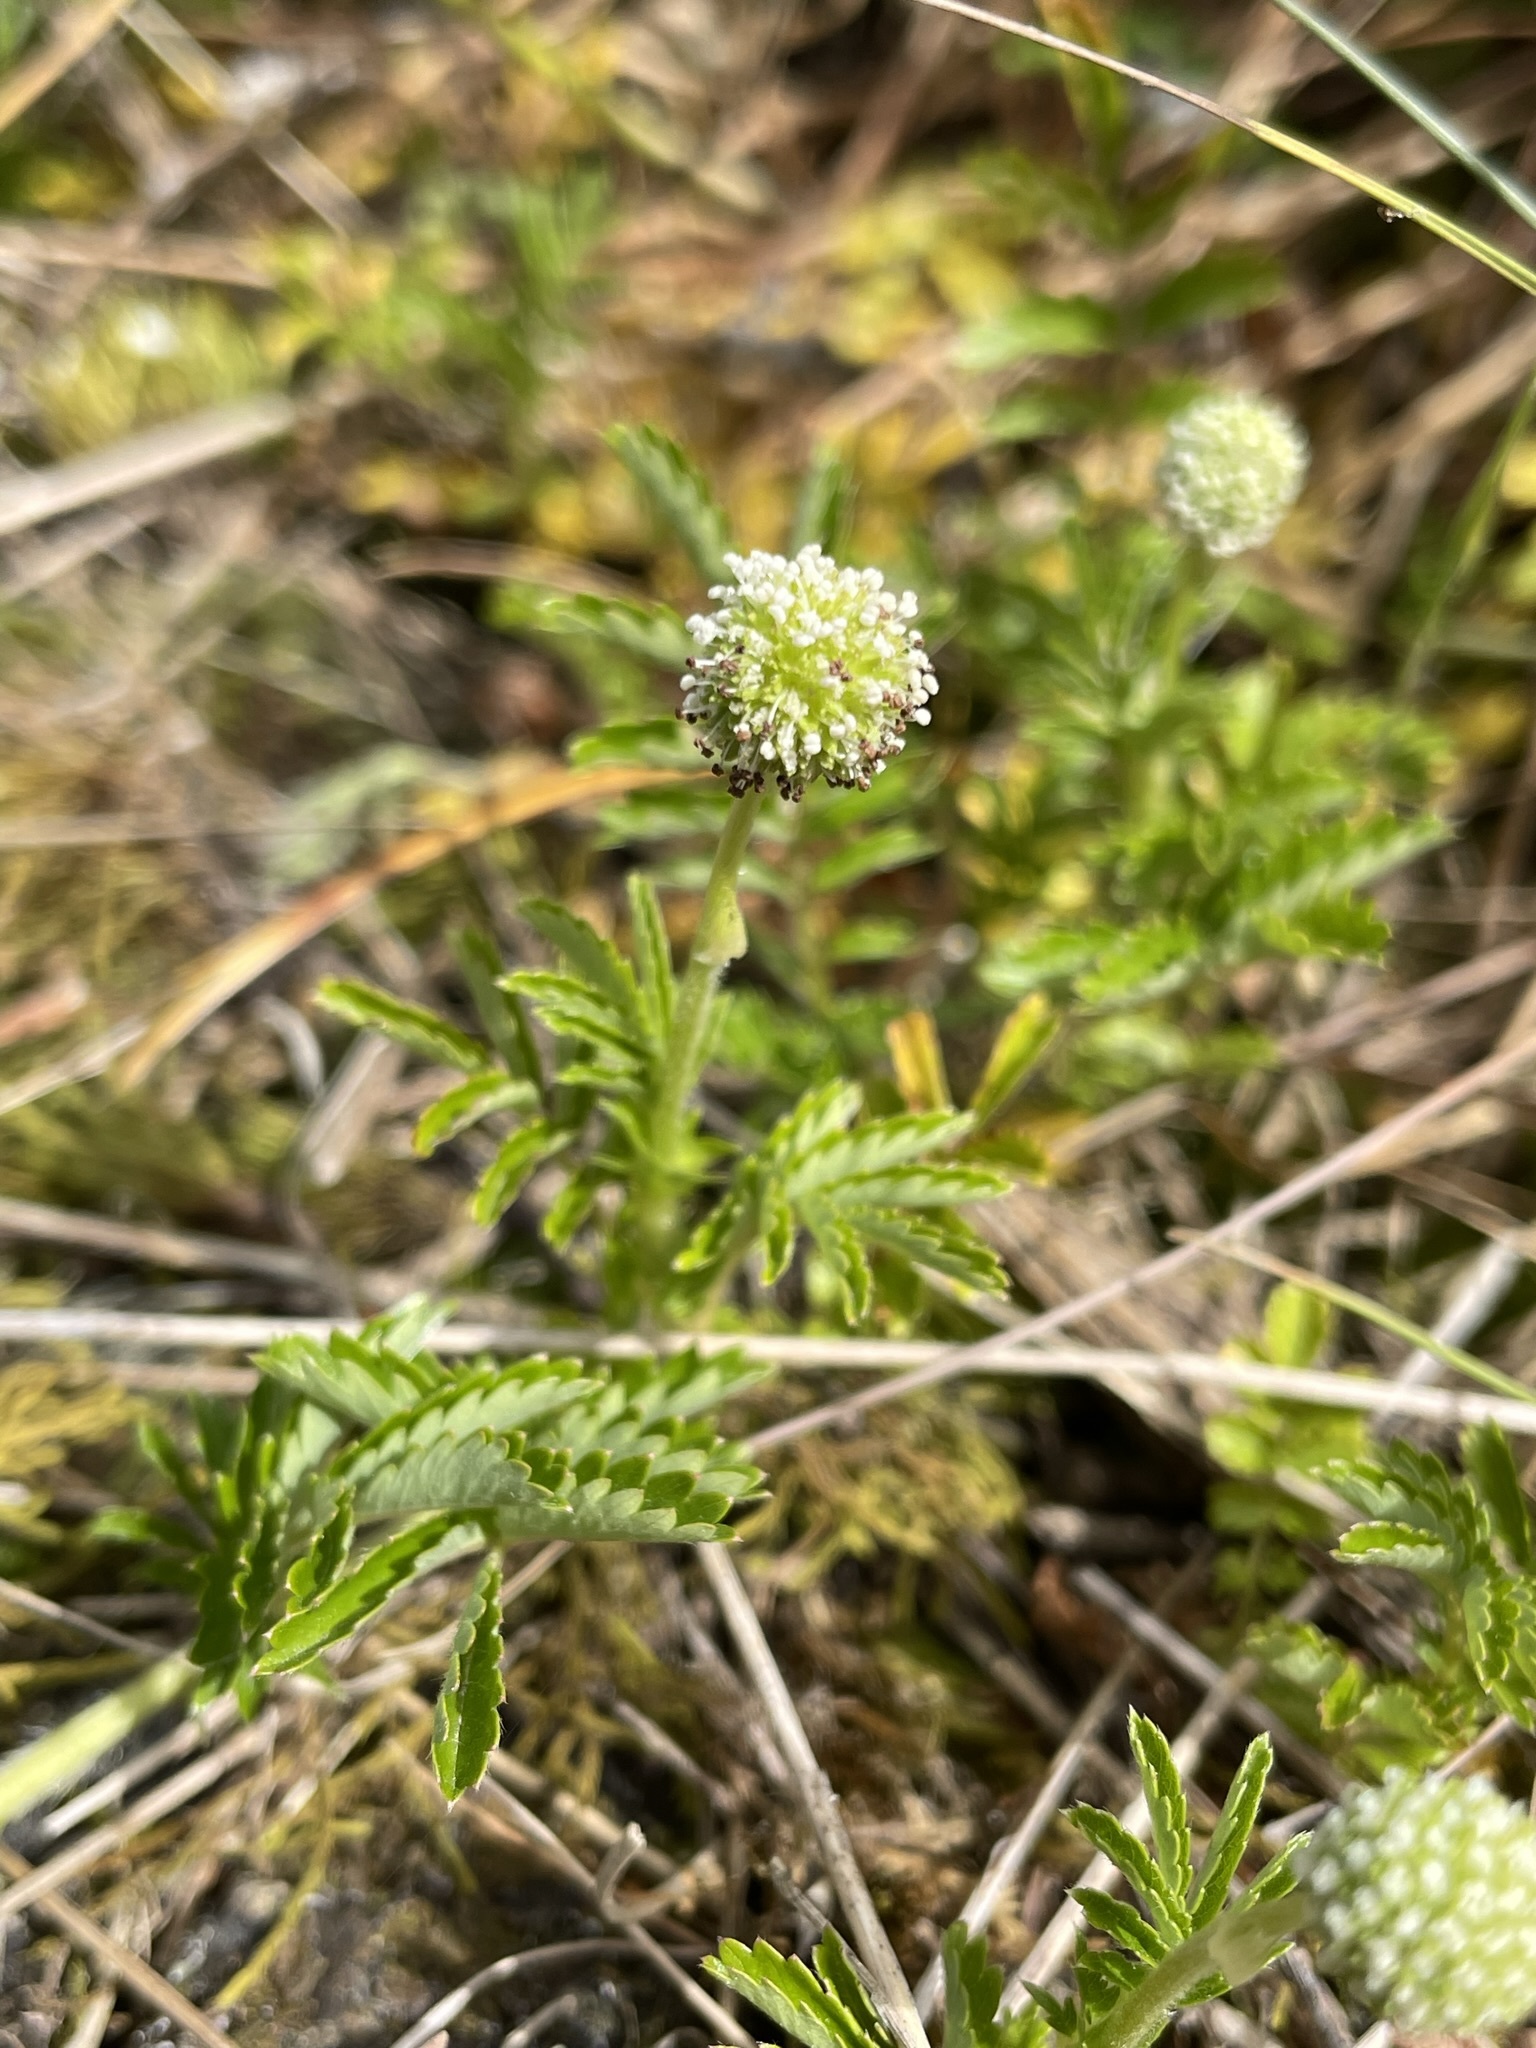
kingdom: Plantae
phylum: Tracheophyta
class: Magnoliopsida
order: Rosales
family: Rosaceae
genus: Acaena
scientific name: Acaena novae-zelandiae
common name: Pirri-pirri-bur
